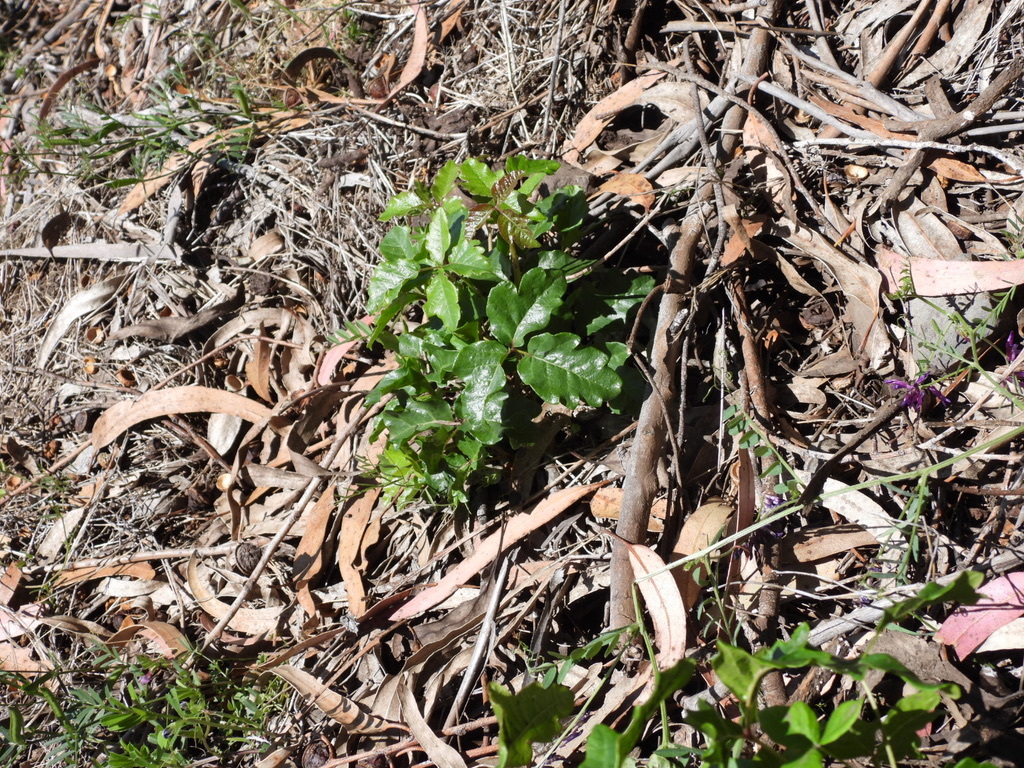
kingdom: Plantae
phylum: Tracheophyta
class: Magnoliopsida
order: Sapindales
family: Anacardiaceae
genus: Toxicodendron
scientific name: Toxicodendron diversilobum
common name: Pacific poison-oak
